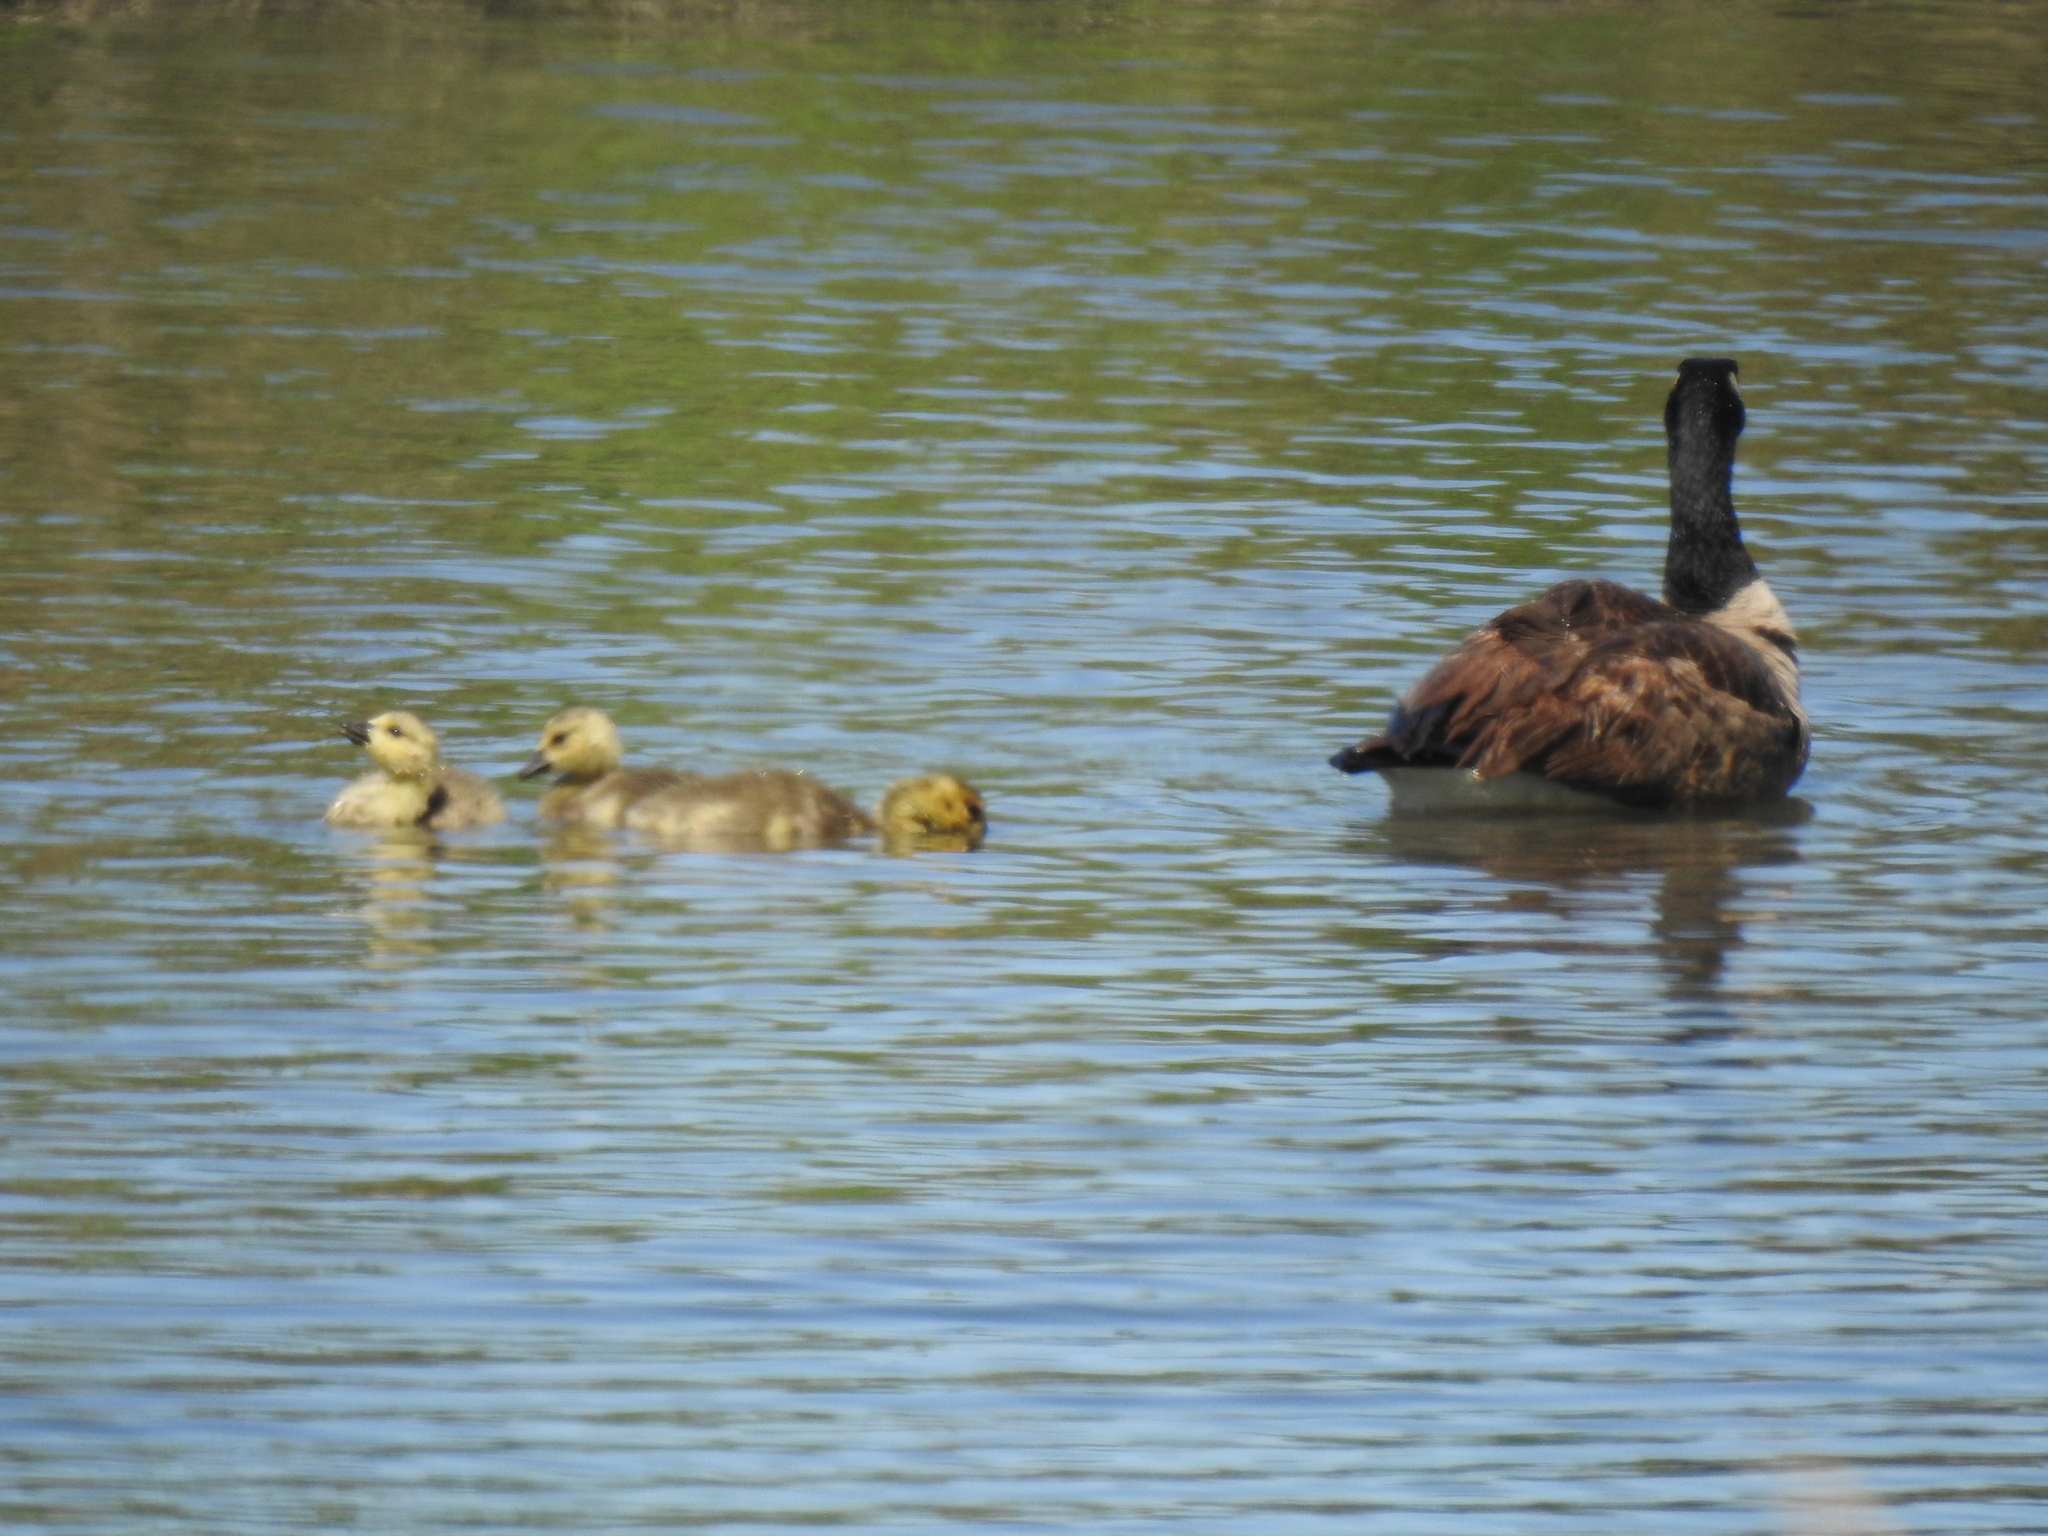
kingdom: Animalia
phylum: Chordata
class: Aves
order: Anseriformes
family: Anatidae
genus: Branta
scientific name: Branta canadensis
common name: Canada goose
